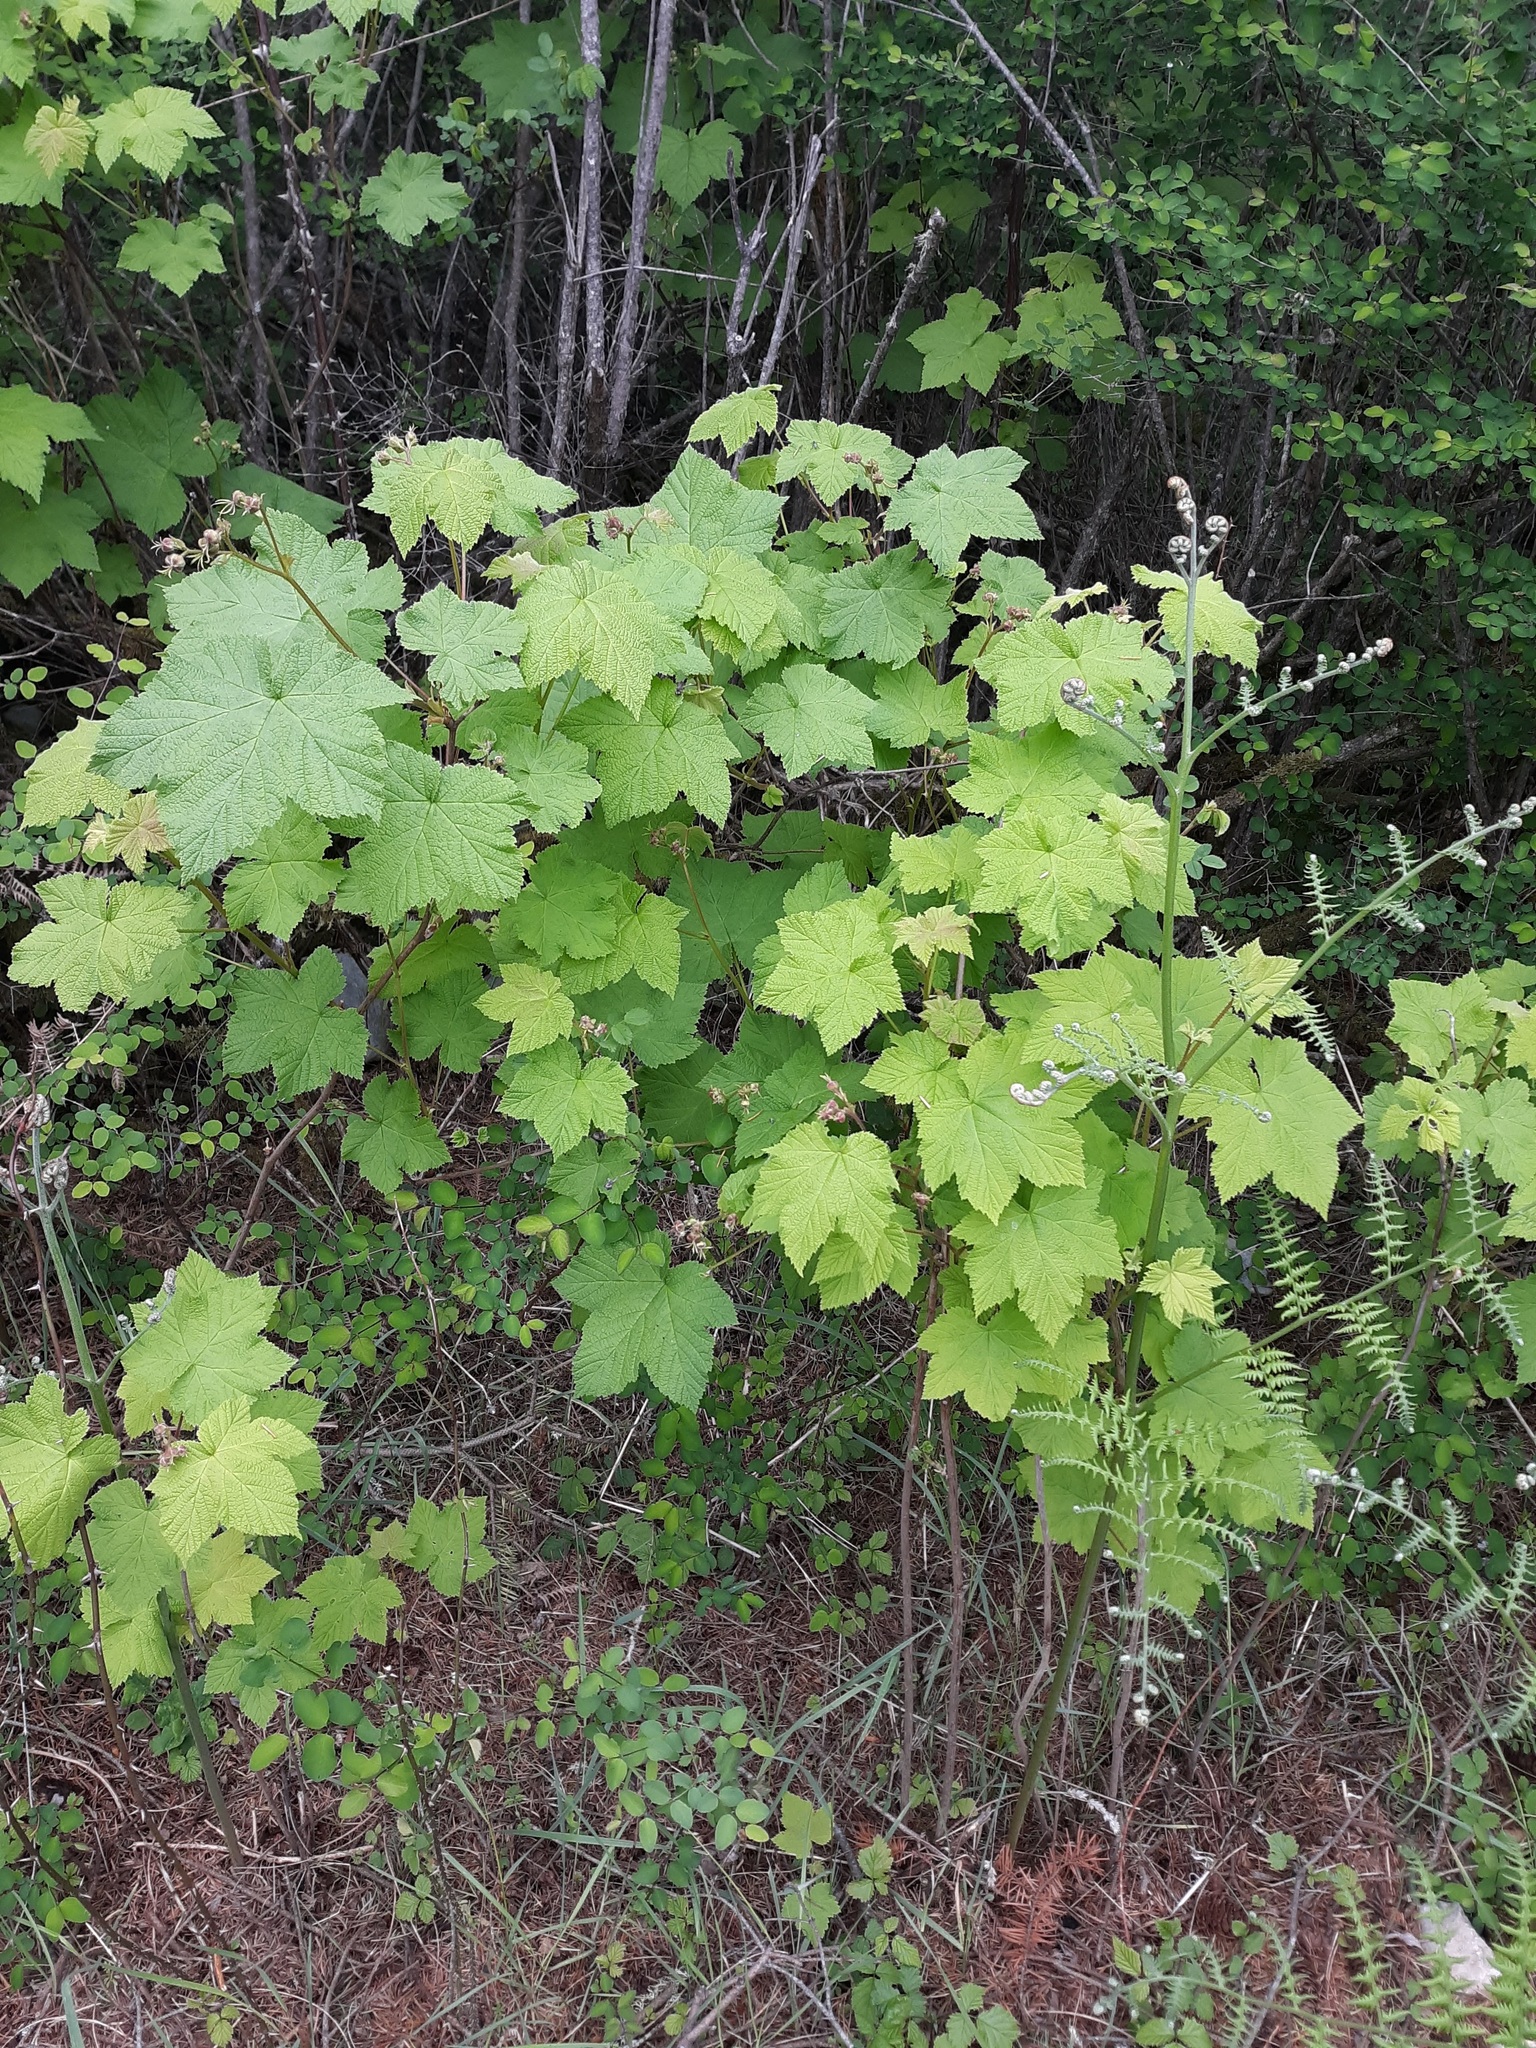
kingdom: Plantae
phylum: Tracheophyta
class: Magnoliopsida
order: Rosales
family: Rosaceae
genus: Rubus
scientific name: Rubus parviflorus
